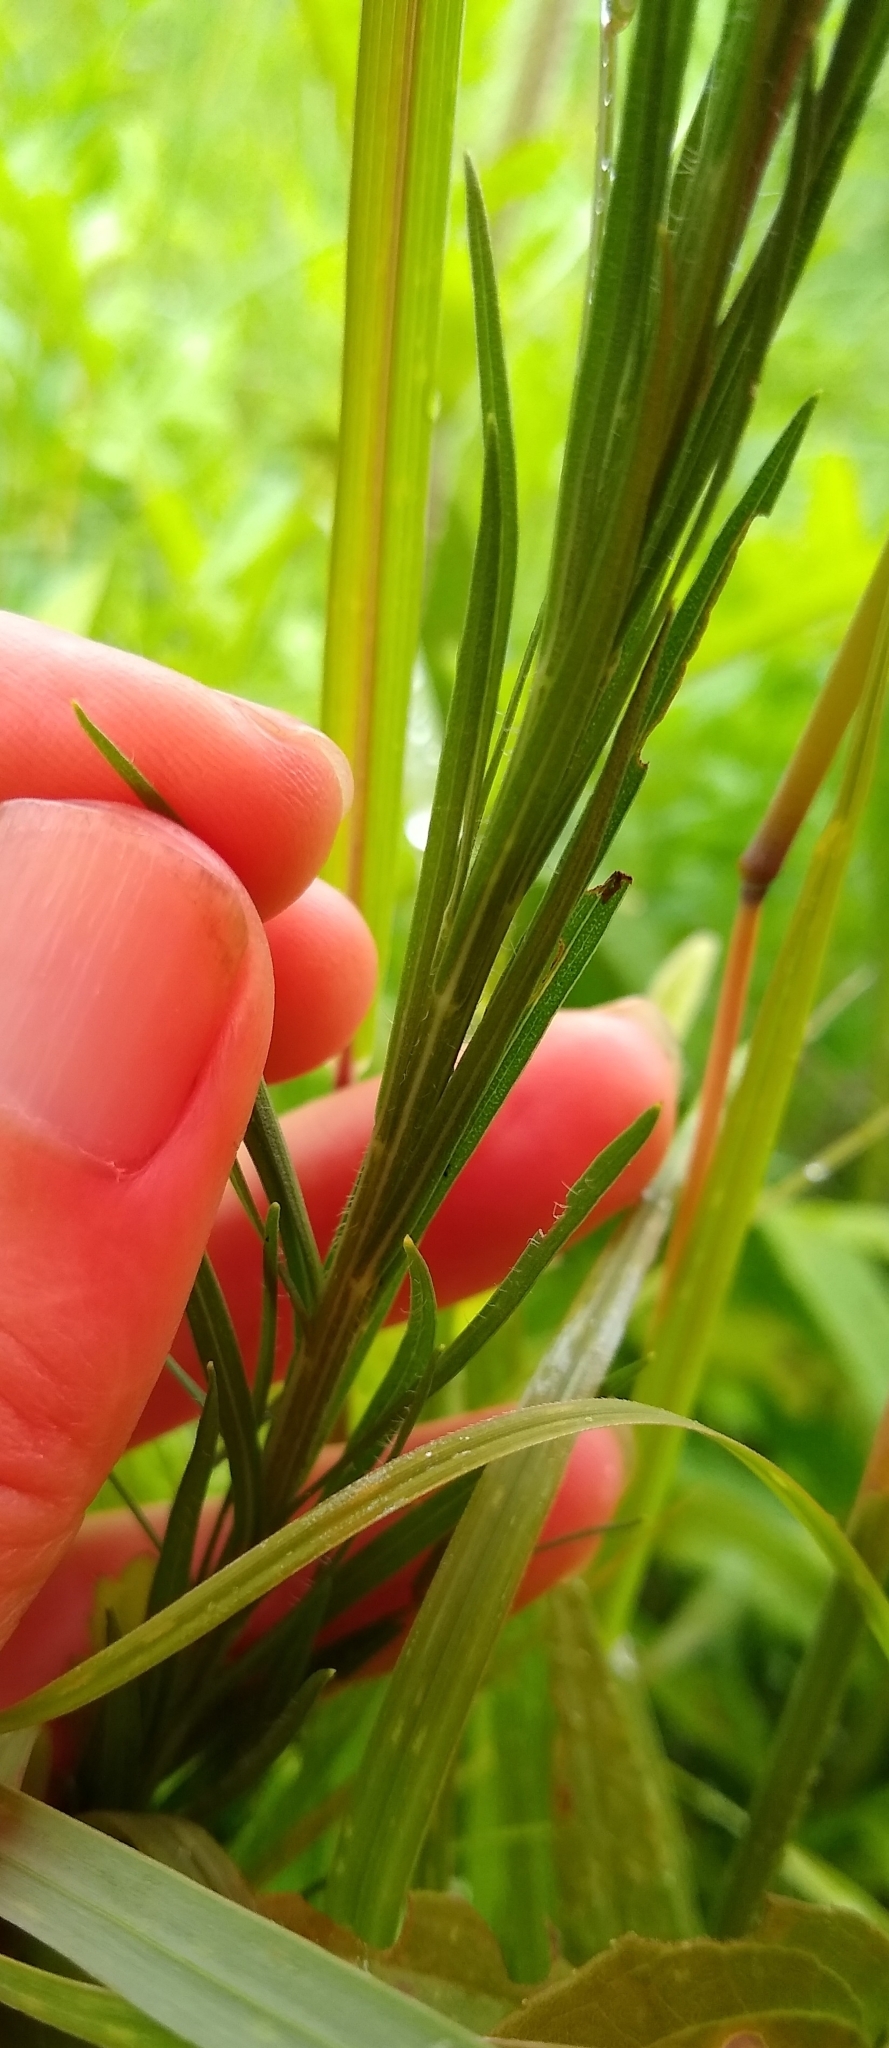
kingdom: Plantae
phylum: Tracheophyta
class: Magnoliopsida
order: Asterales
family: Asteraceae
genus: Liatris
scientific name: Liatris pycnostachya
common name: Cattail gayfeather
